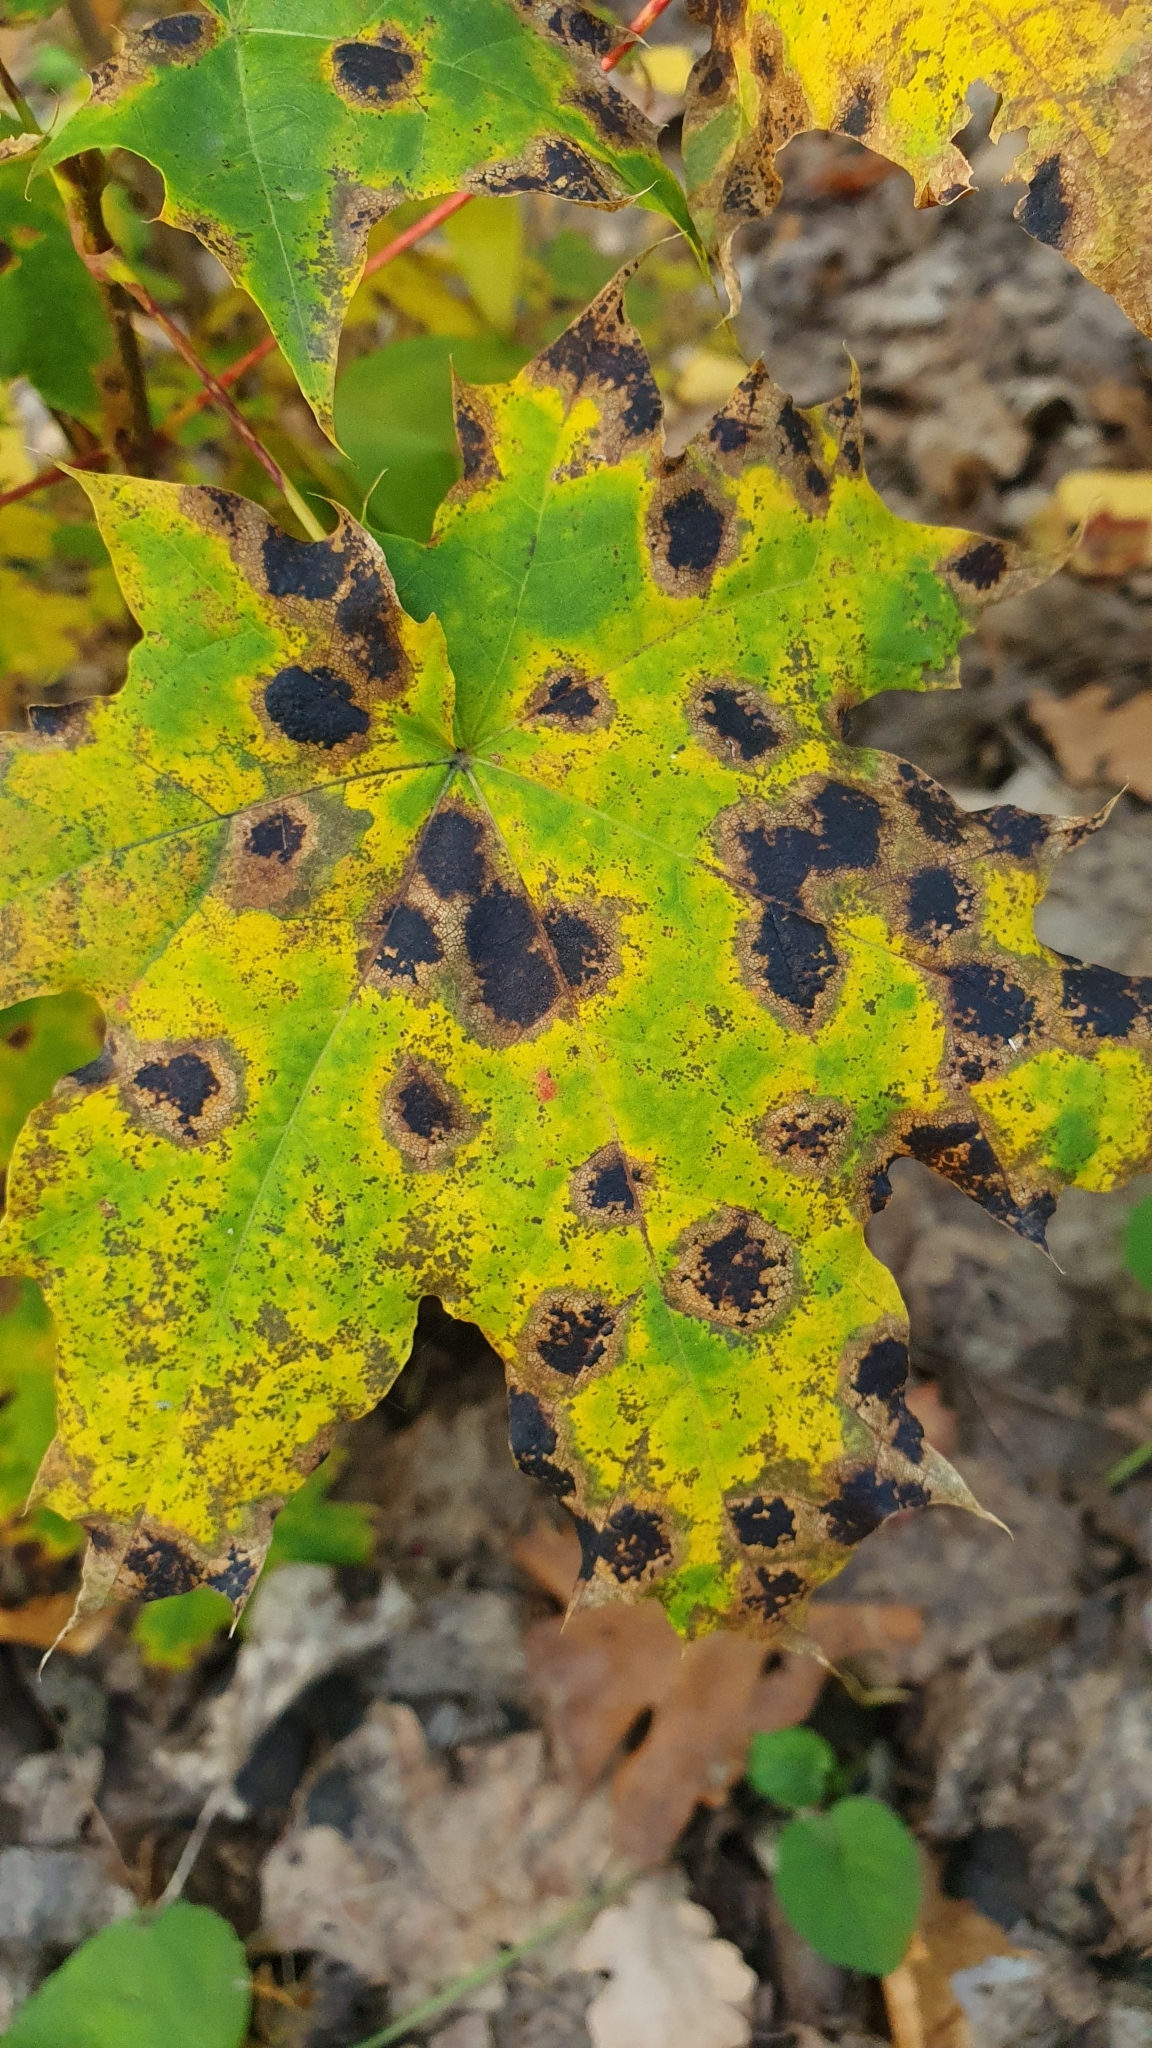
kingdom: Fungi
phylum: Ascomycota
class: Leotiomycetes
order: Rhytismatales
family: Rhytismataceae
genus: Rhytisma
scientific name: Rhytisma acerinum
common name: European tar spot
